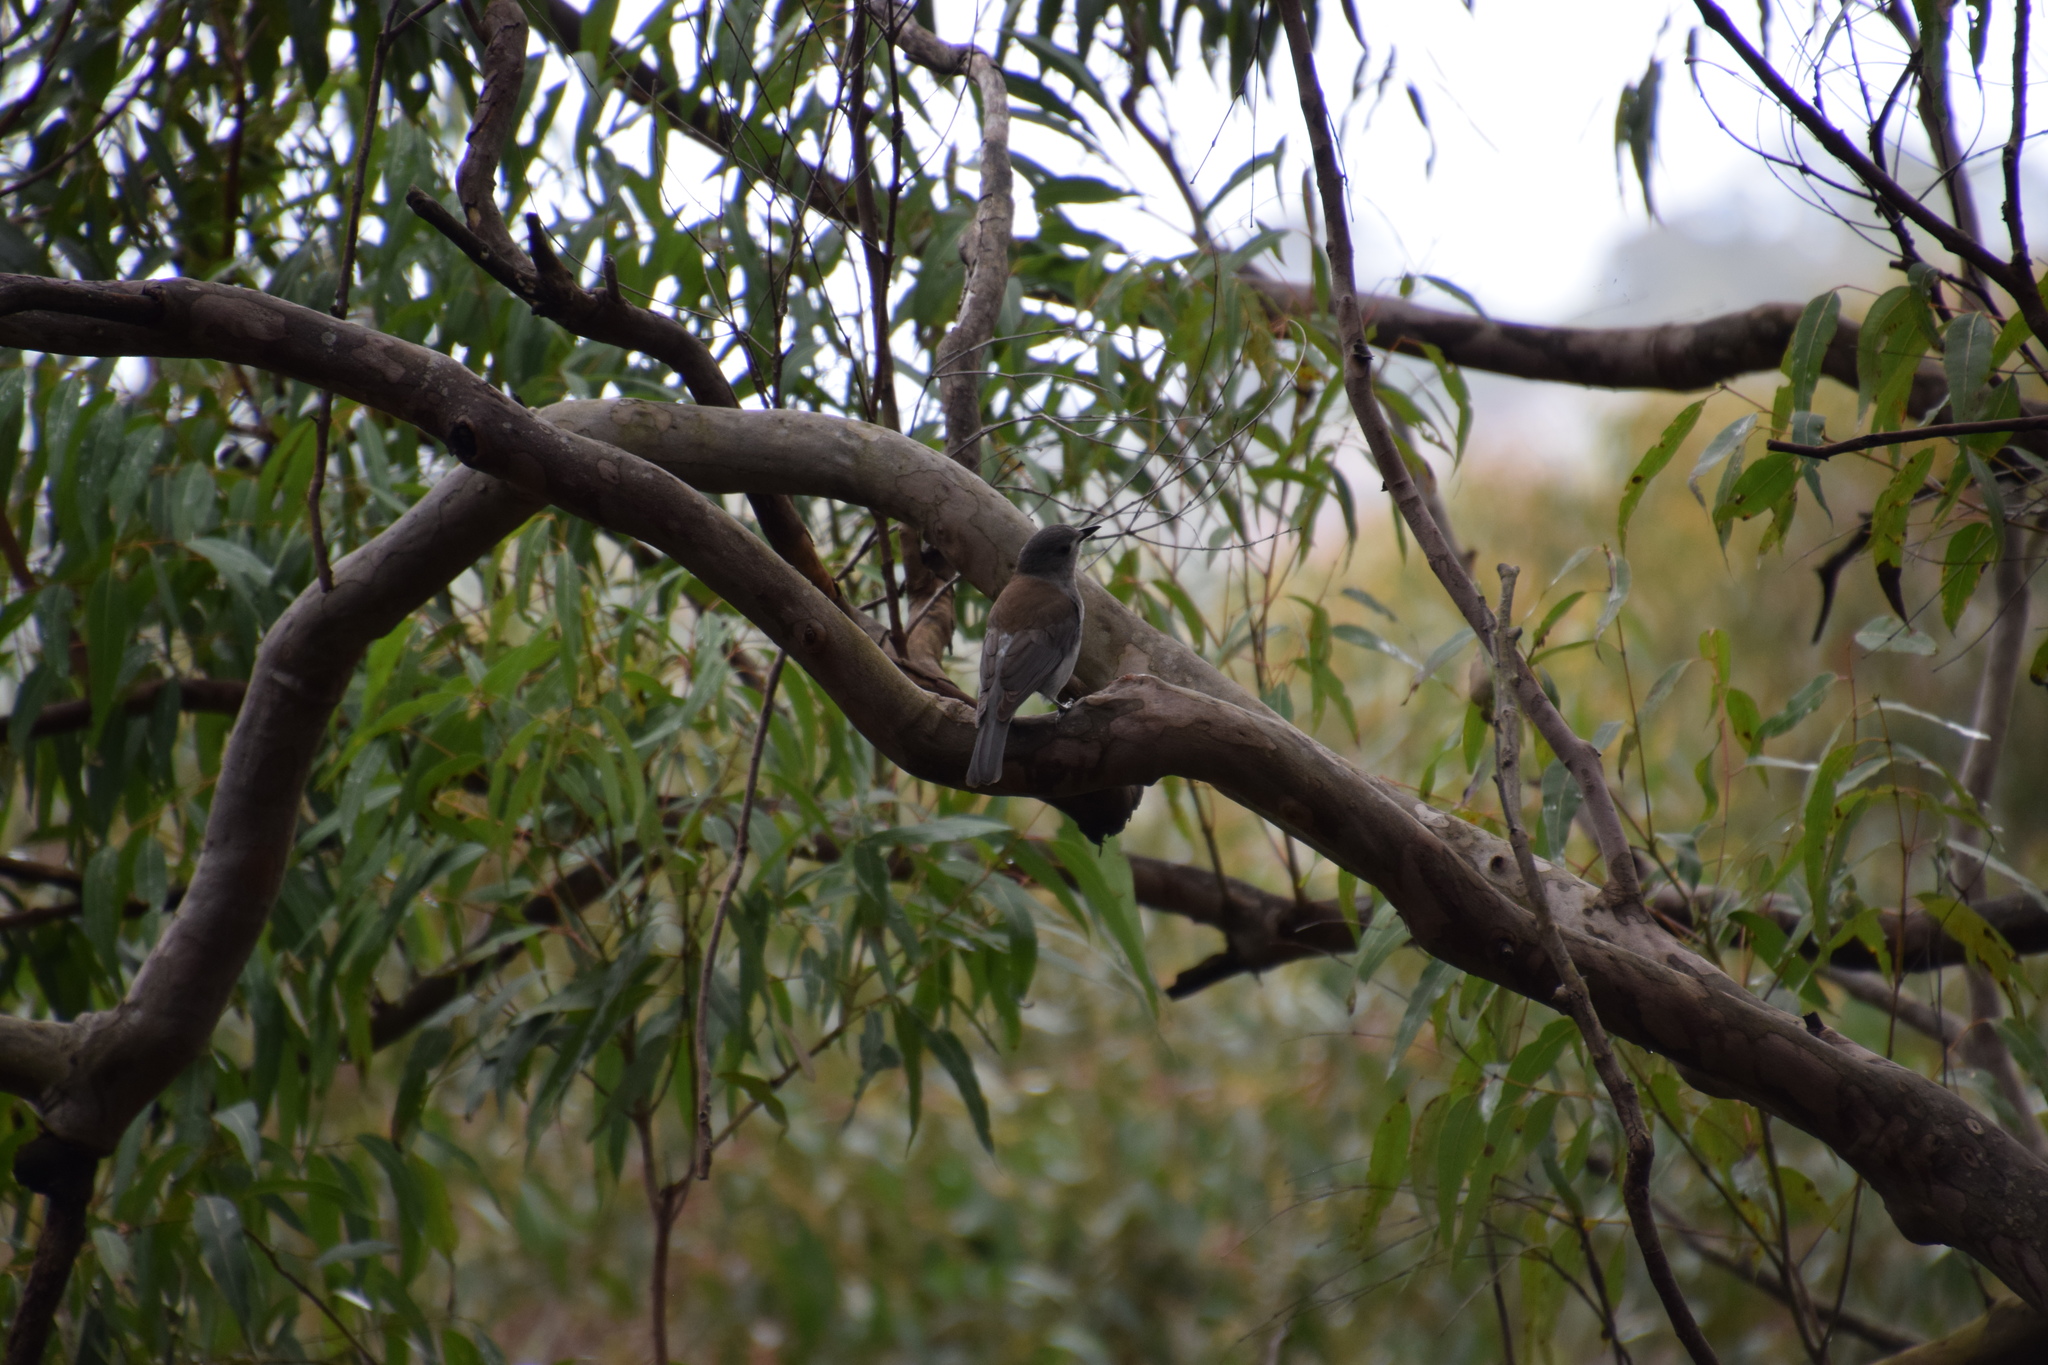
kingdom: Animalia
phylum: Chordata
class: Aves
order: Passeriformes
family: Pachycephalidae
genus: Colluricincla
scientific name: Colluricincla harmonica
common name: Grey shrikethrush
